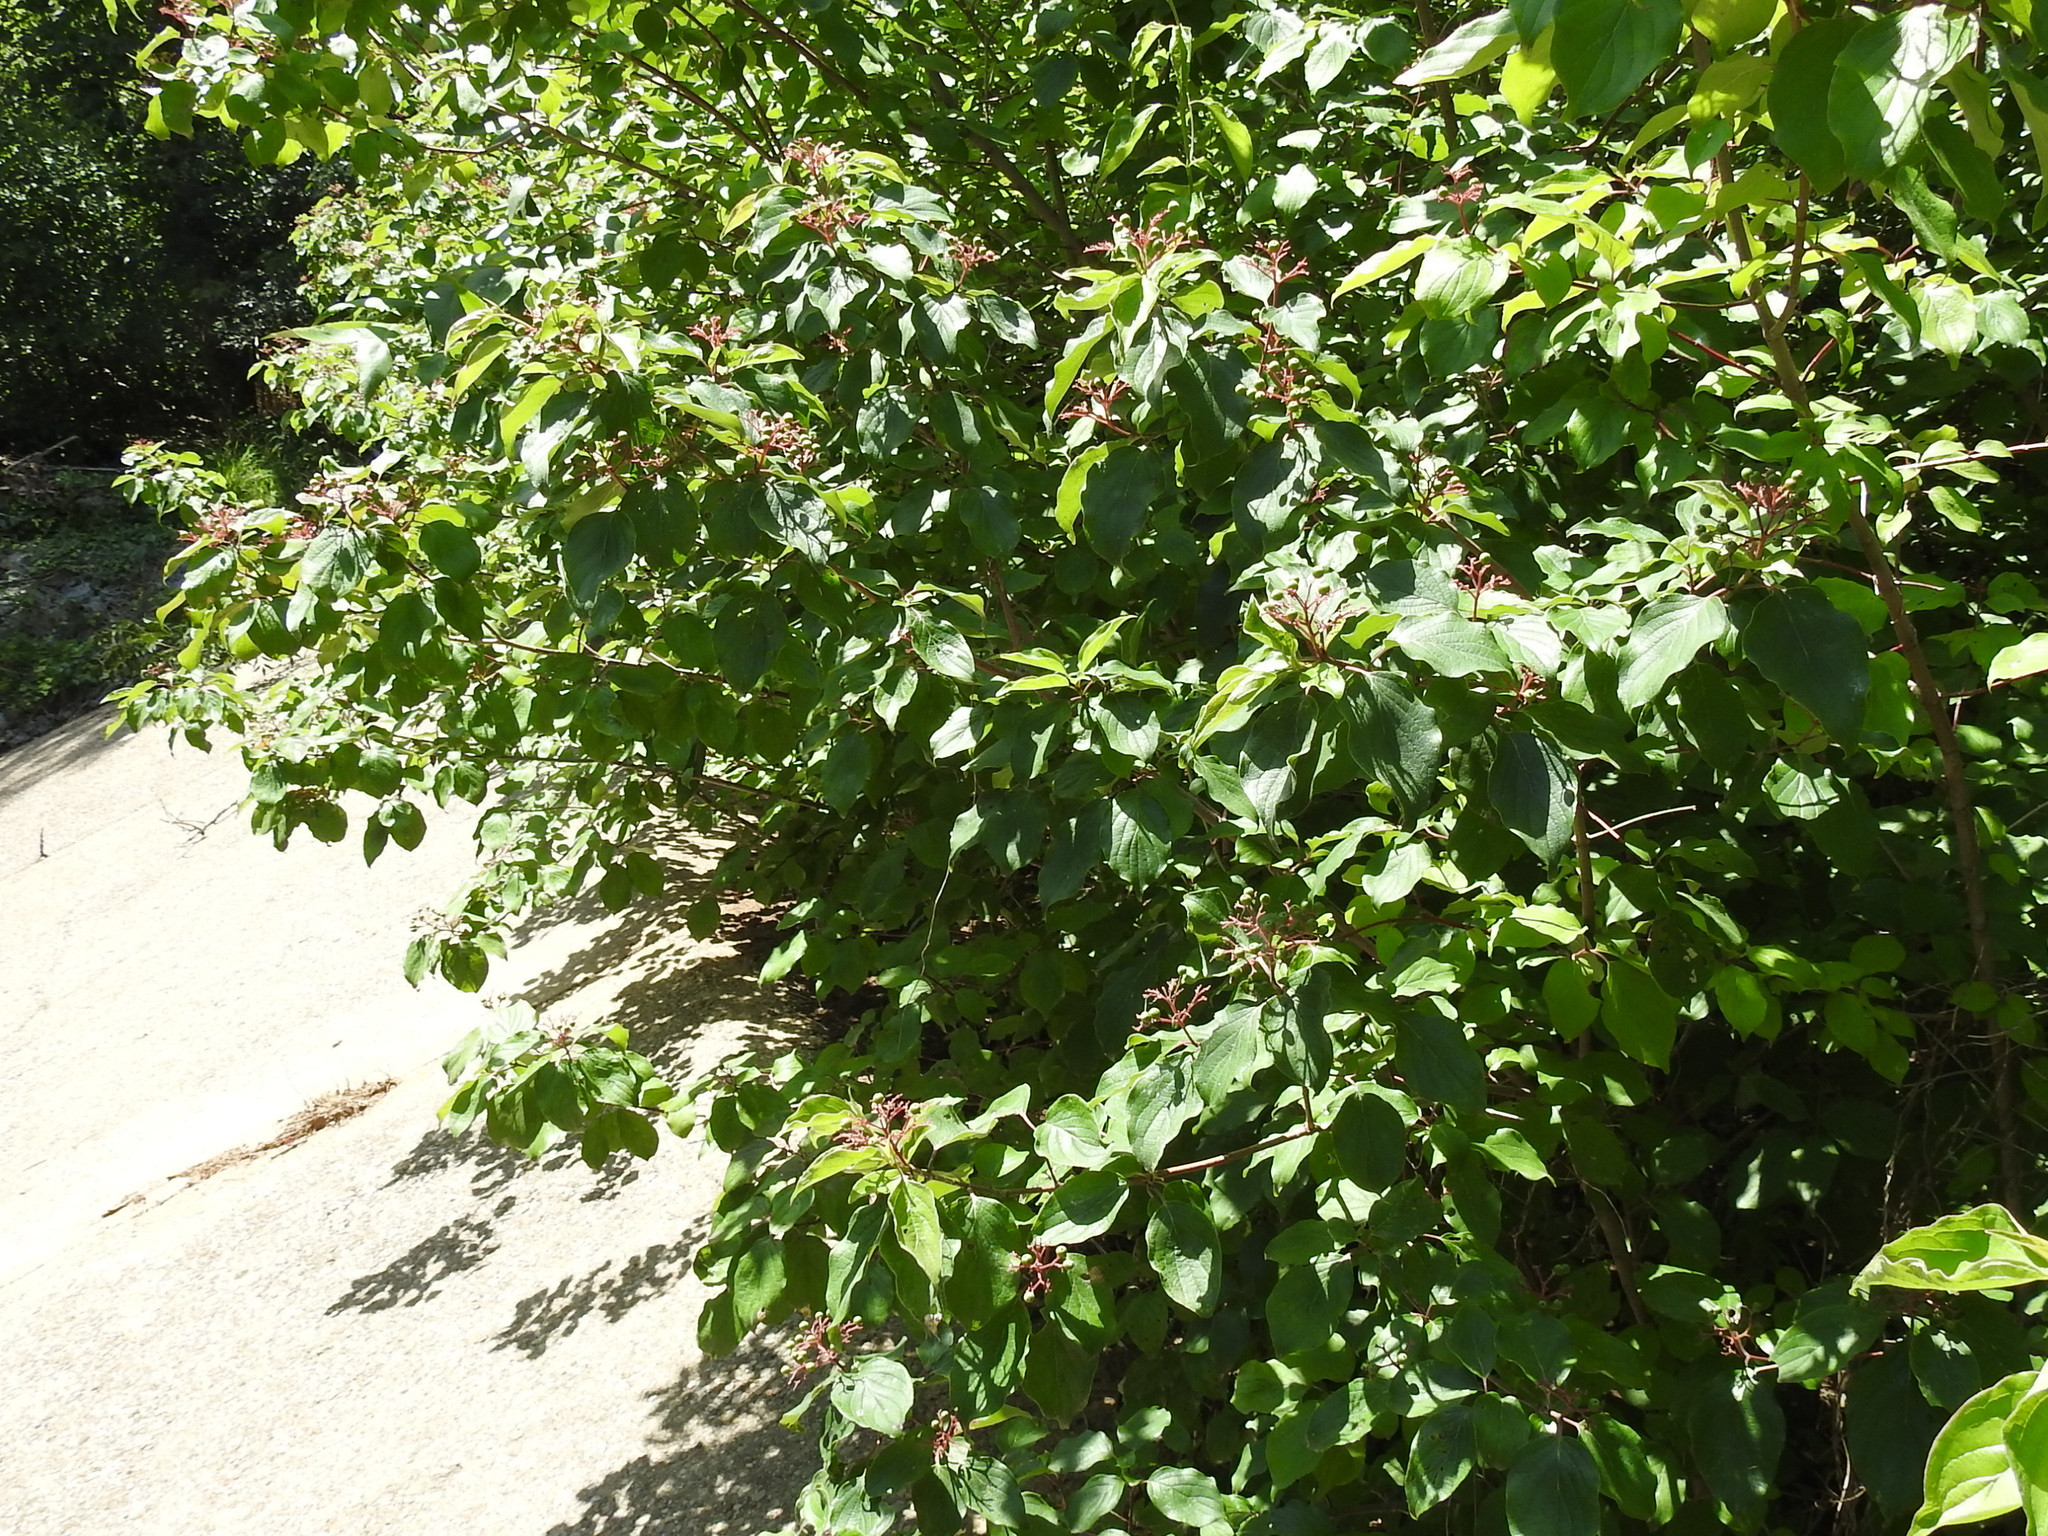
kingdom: Plantae
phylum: Tracheophyta
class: Magnoliopsida
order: Cornales
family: Cornaceae
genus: Cornus
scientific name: Cornus drummondii
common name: Rough-leaf dogwood
